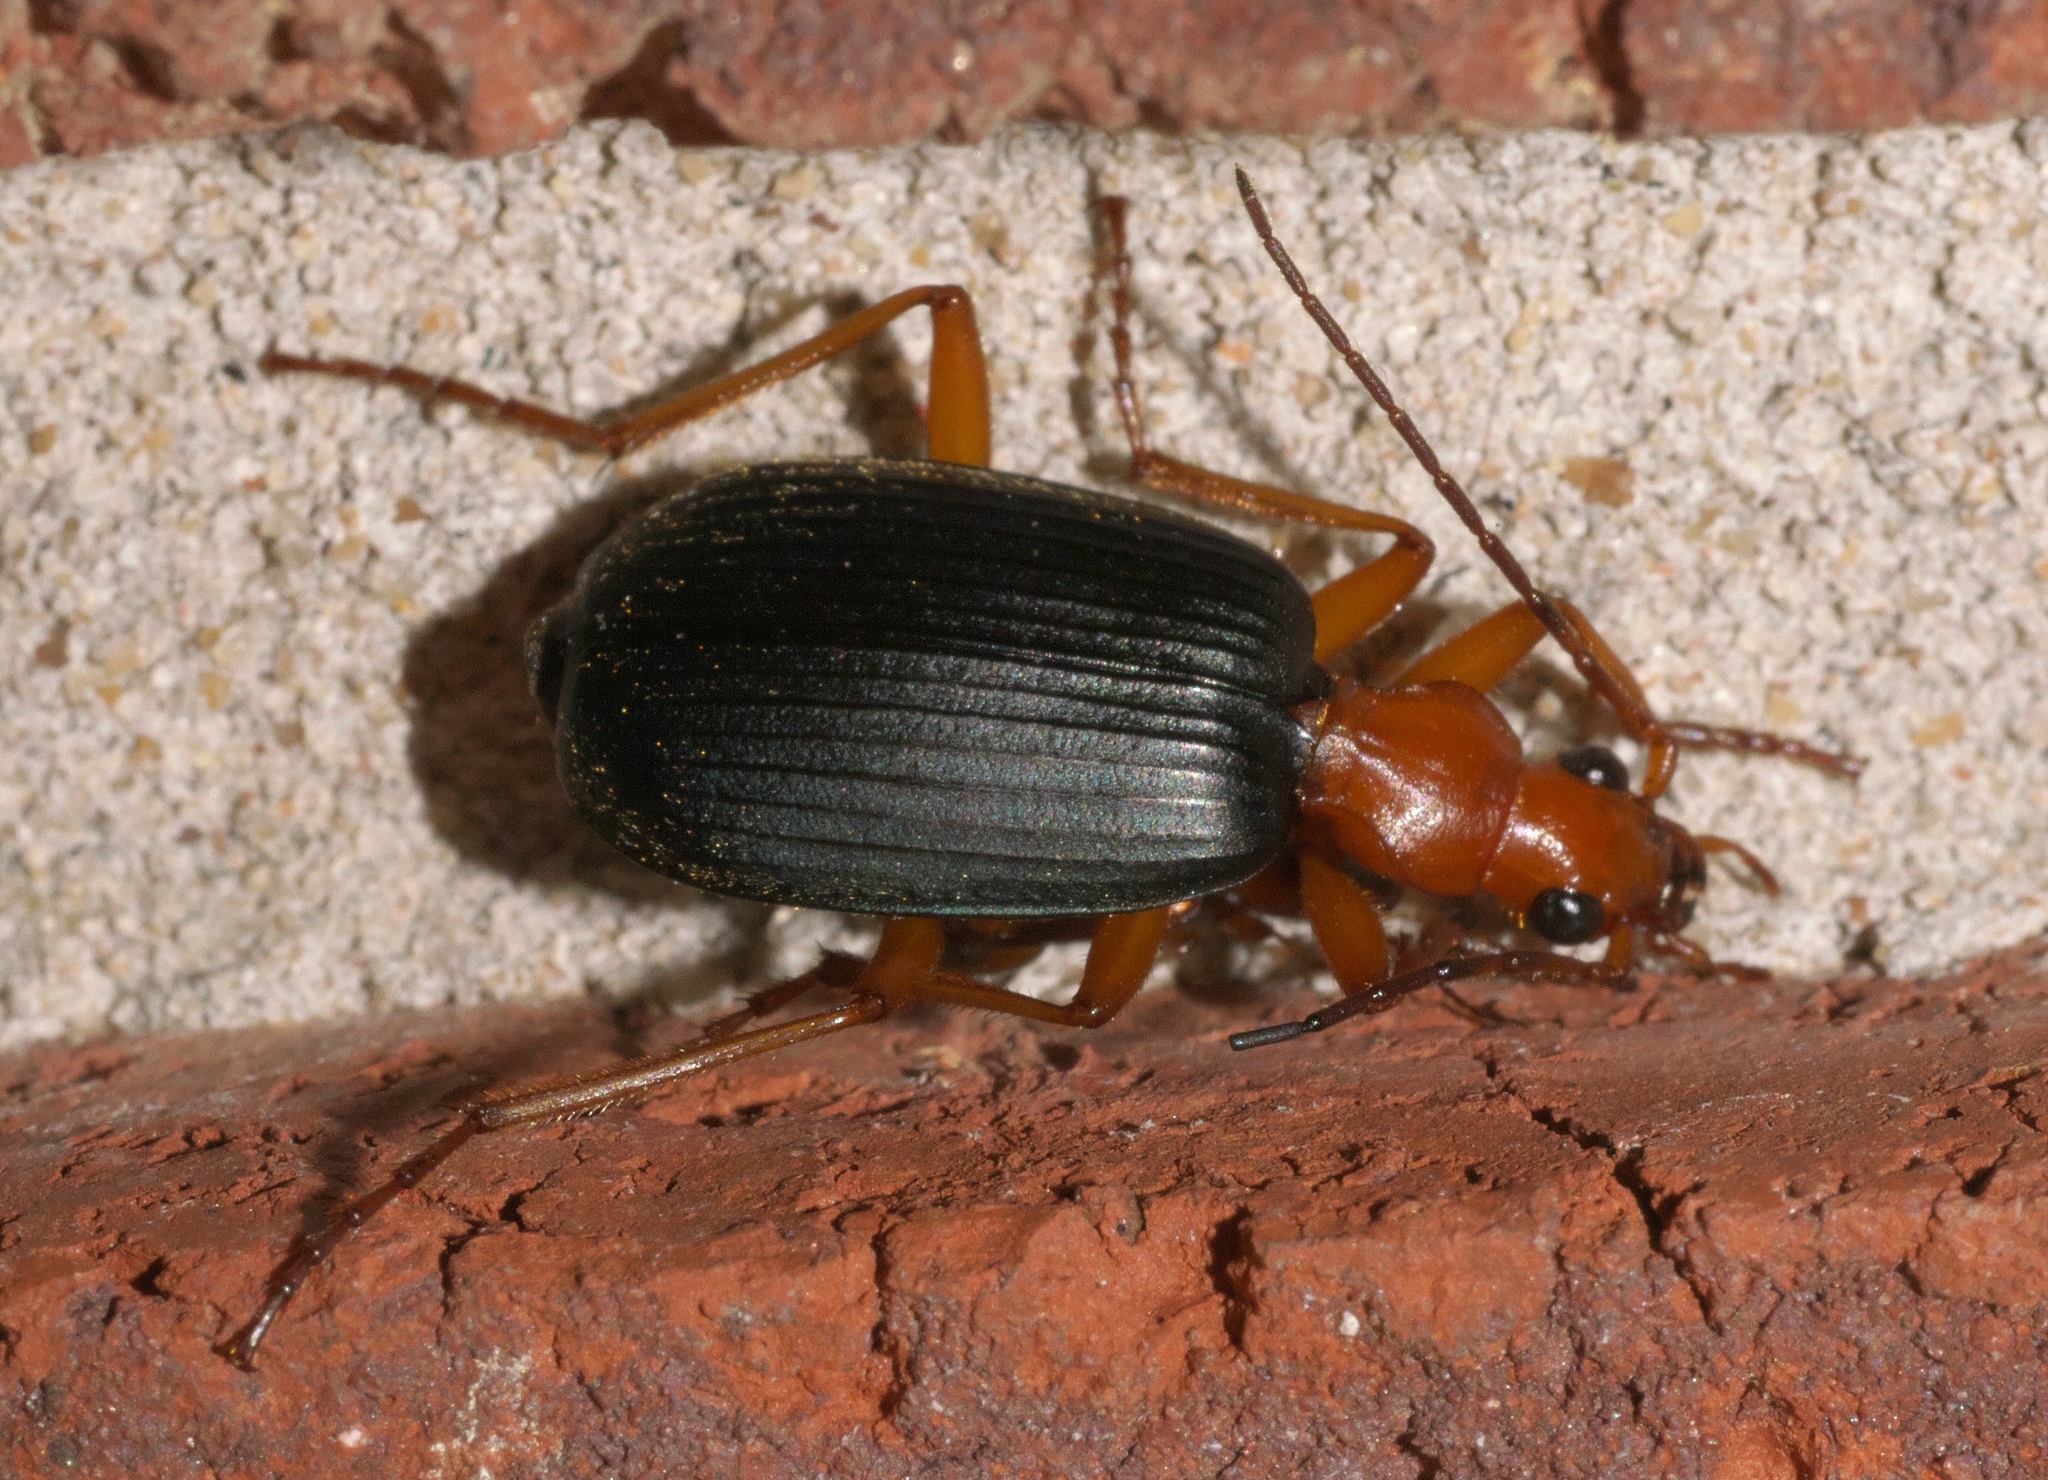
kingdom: Animalia
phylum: Arthropoda
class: Insecta
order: Coleoptera
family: Carabidae
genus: Brachinus
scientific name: Brachinus
